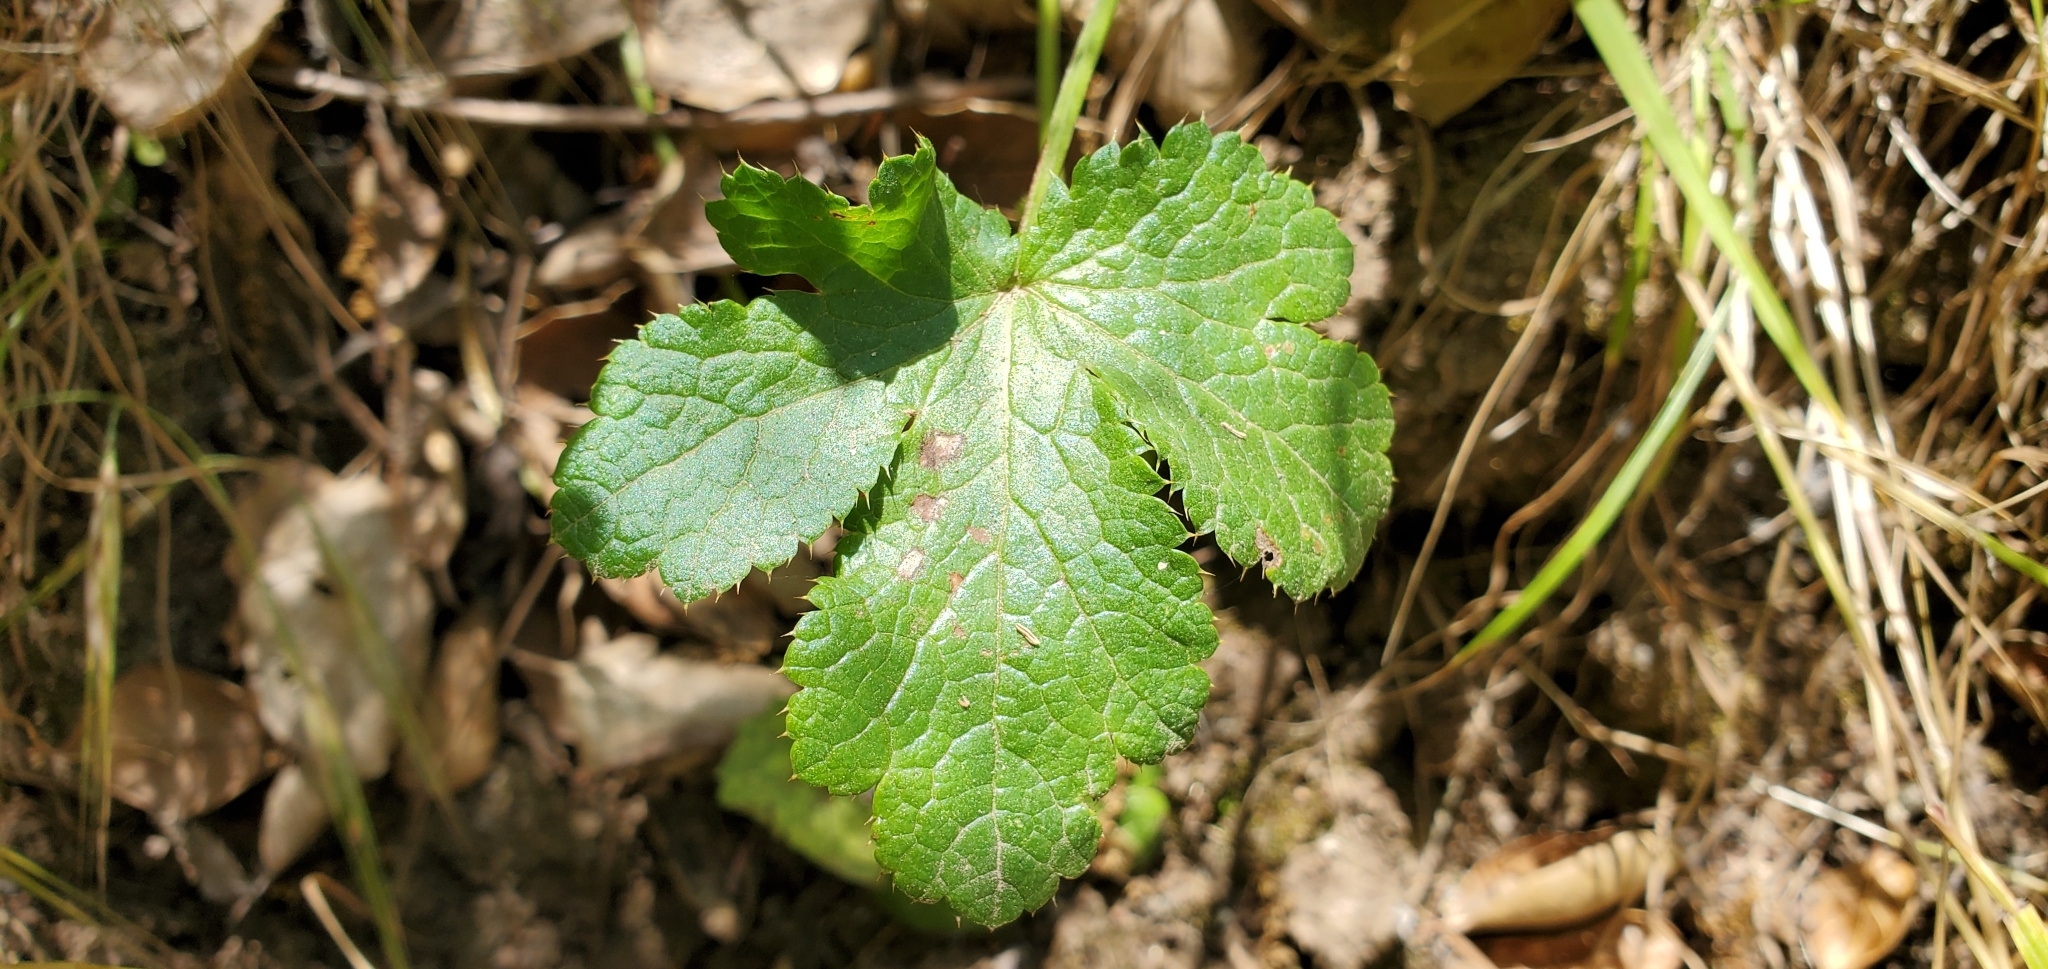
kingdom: Plantae
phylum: Tracheophyta
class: Magnoliopsida
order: Apiales
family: Apiaceae
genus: Sanicula
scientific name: Sanicula crassicaulis
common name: Western snakeroot
